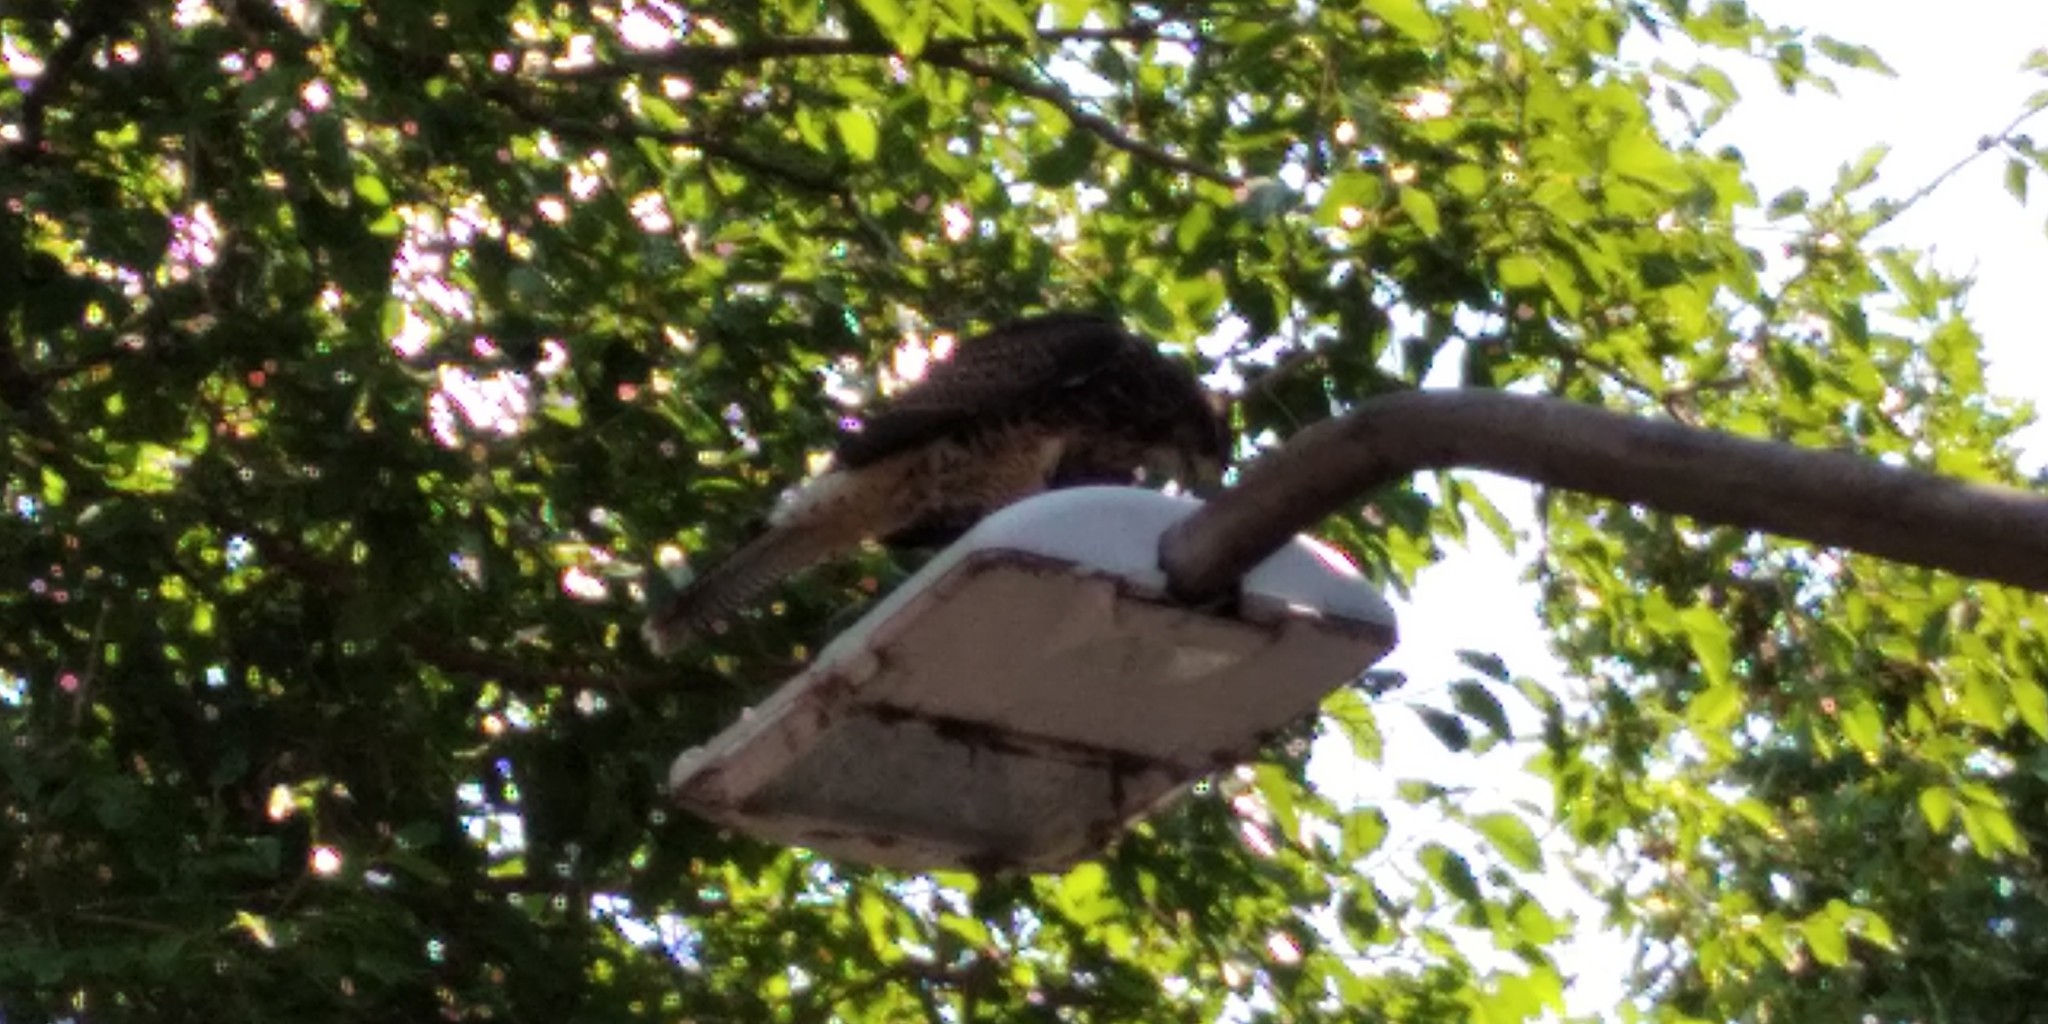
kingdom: Animalia
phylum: Chordata
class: Aves
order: Accipitriformes
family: Accipitridae
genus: Parabuteo
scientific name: Parabuteo unicinctus
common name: Harris's hawk
